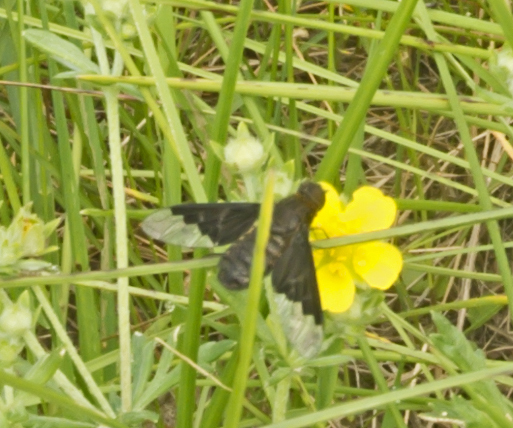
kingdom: Animalia
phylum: Arthropoda
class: Insecta
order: Diptera
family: Bombyliidae
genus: Hemipenthes
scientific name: Hemipenthes morio
